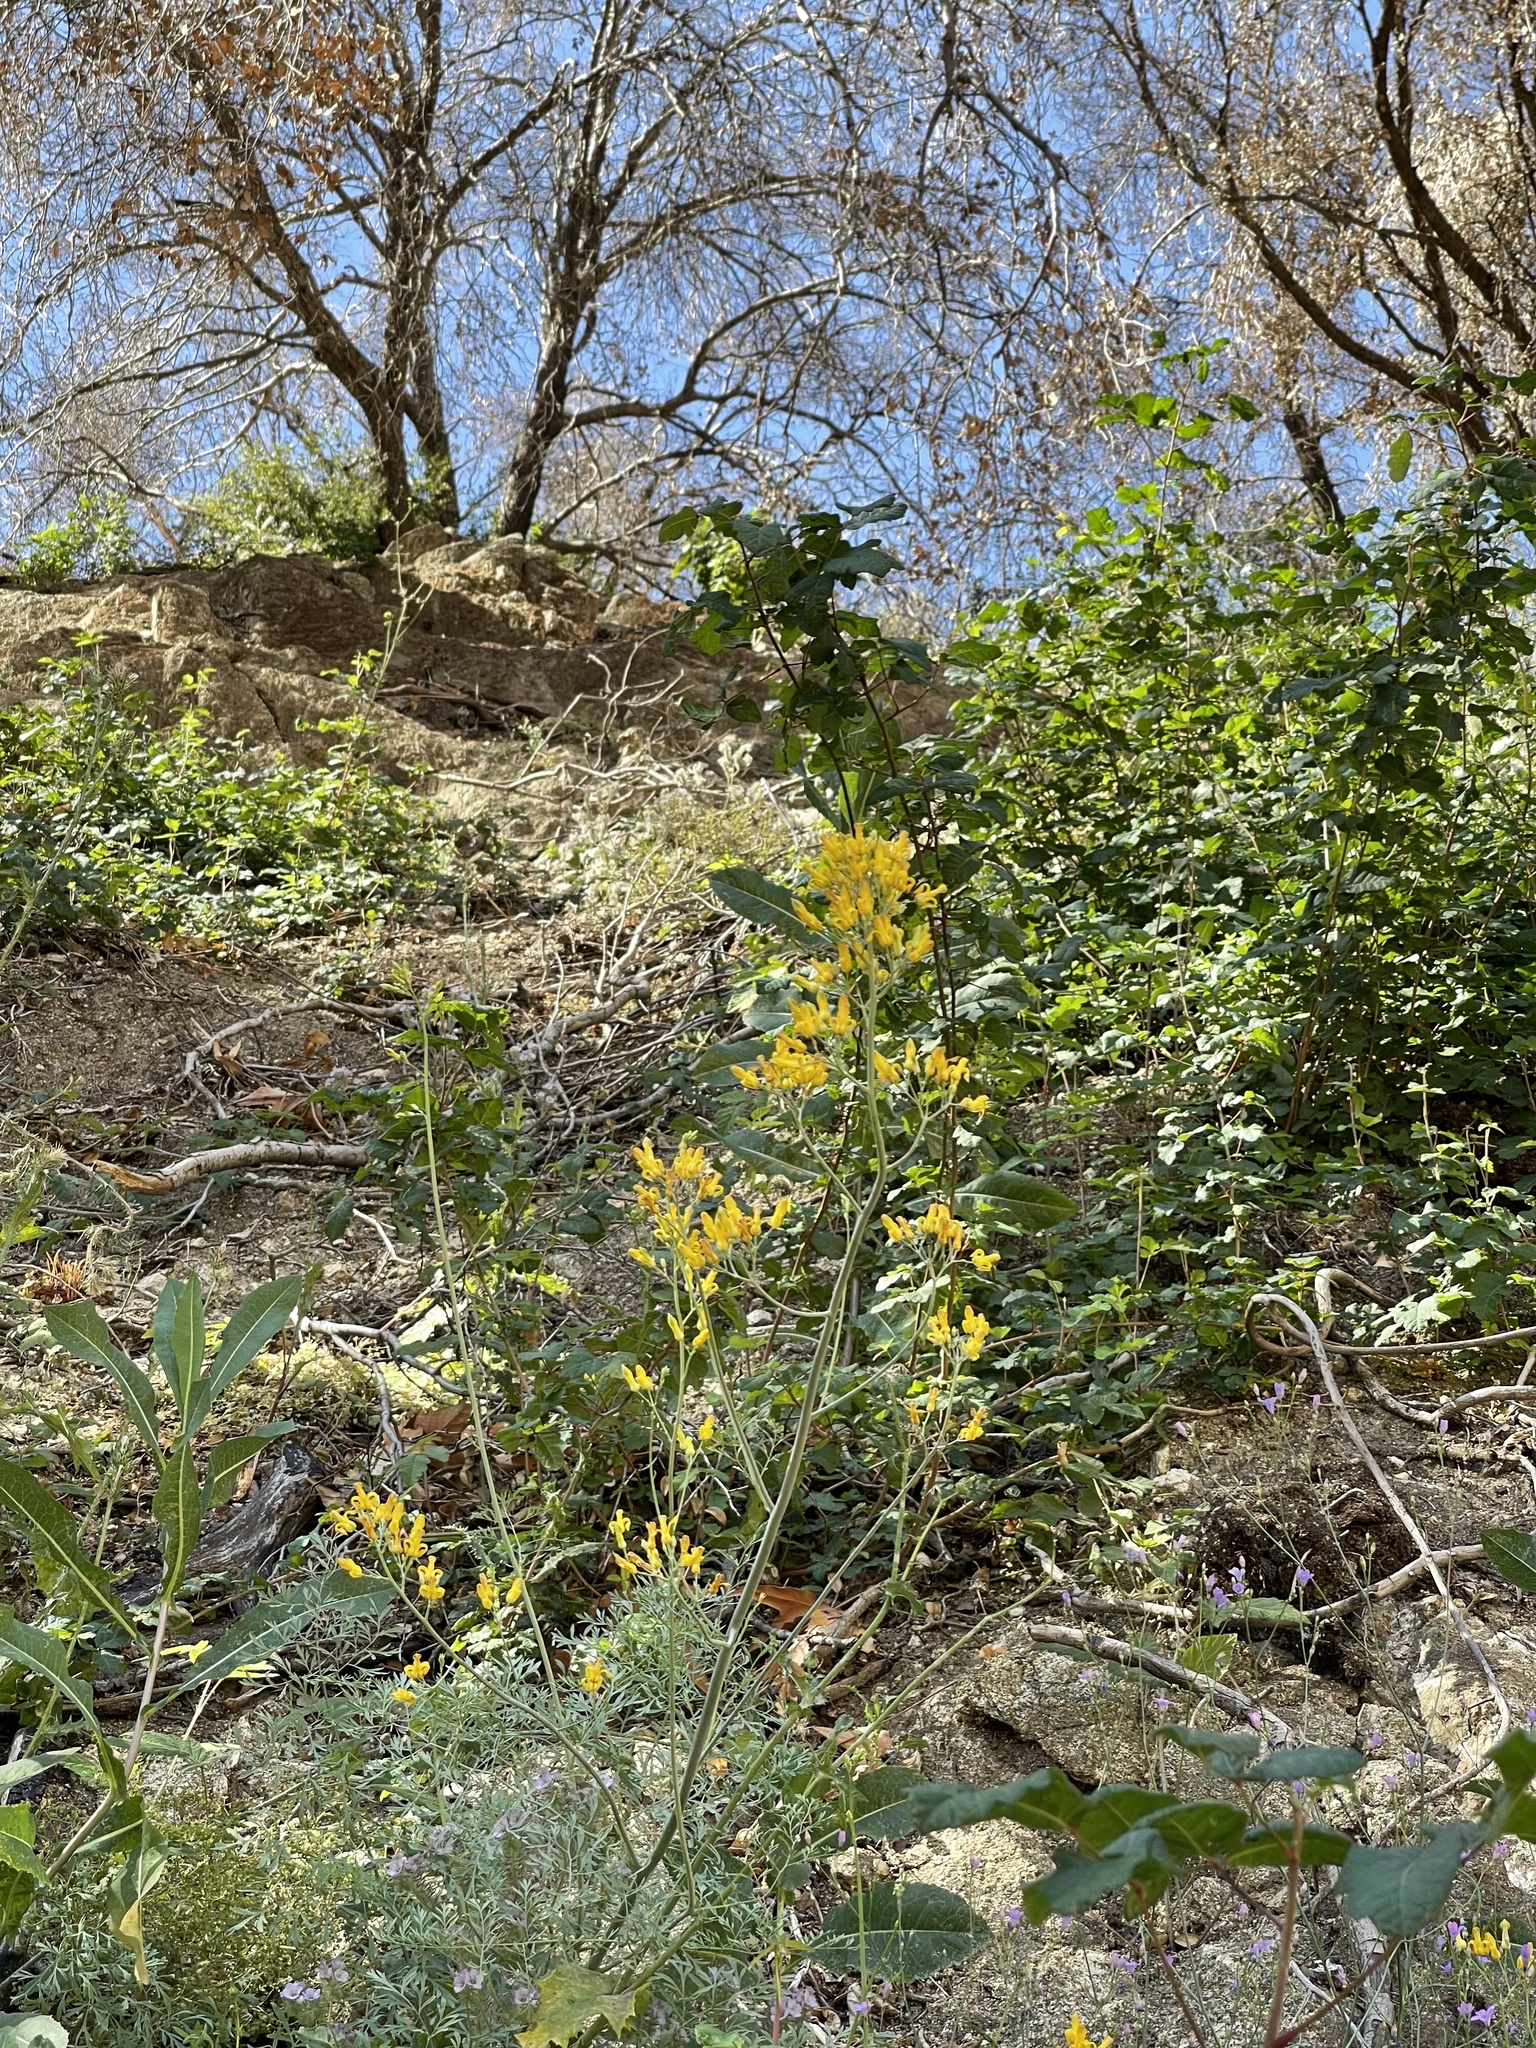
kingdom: Plantae
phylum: Tracheophyta
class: Magnoliopsida
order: Ranunculales
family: Papaveraceae
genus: Ehrendorferia
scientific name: Ehrendorferia chrysantha
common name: Golden eardrops
